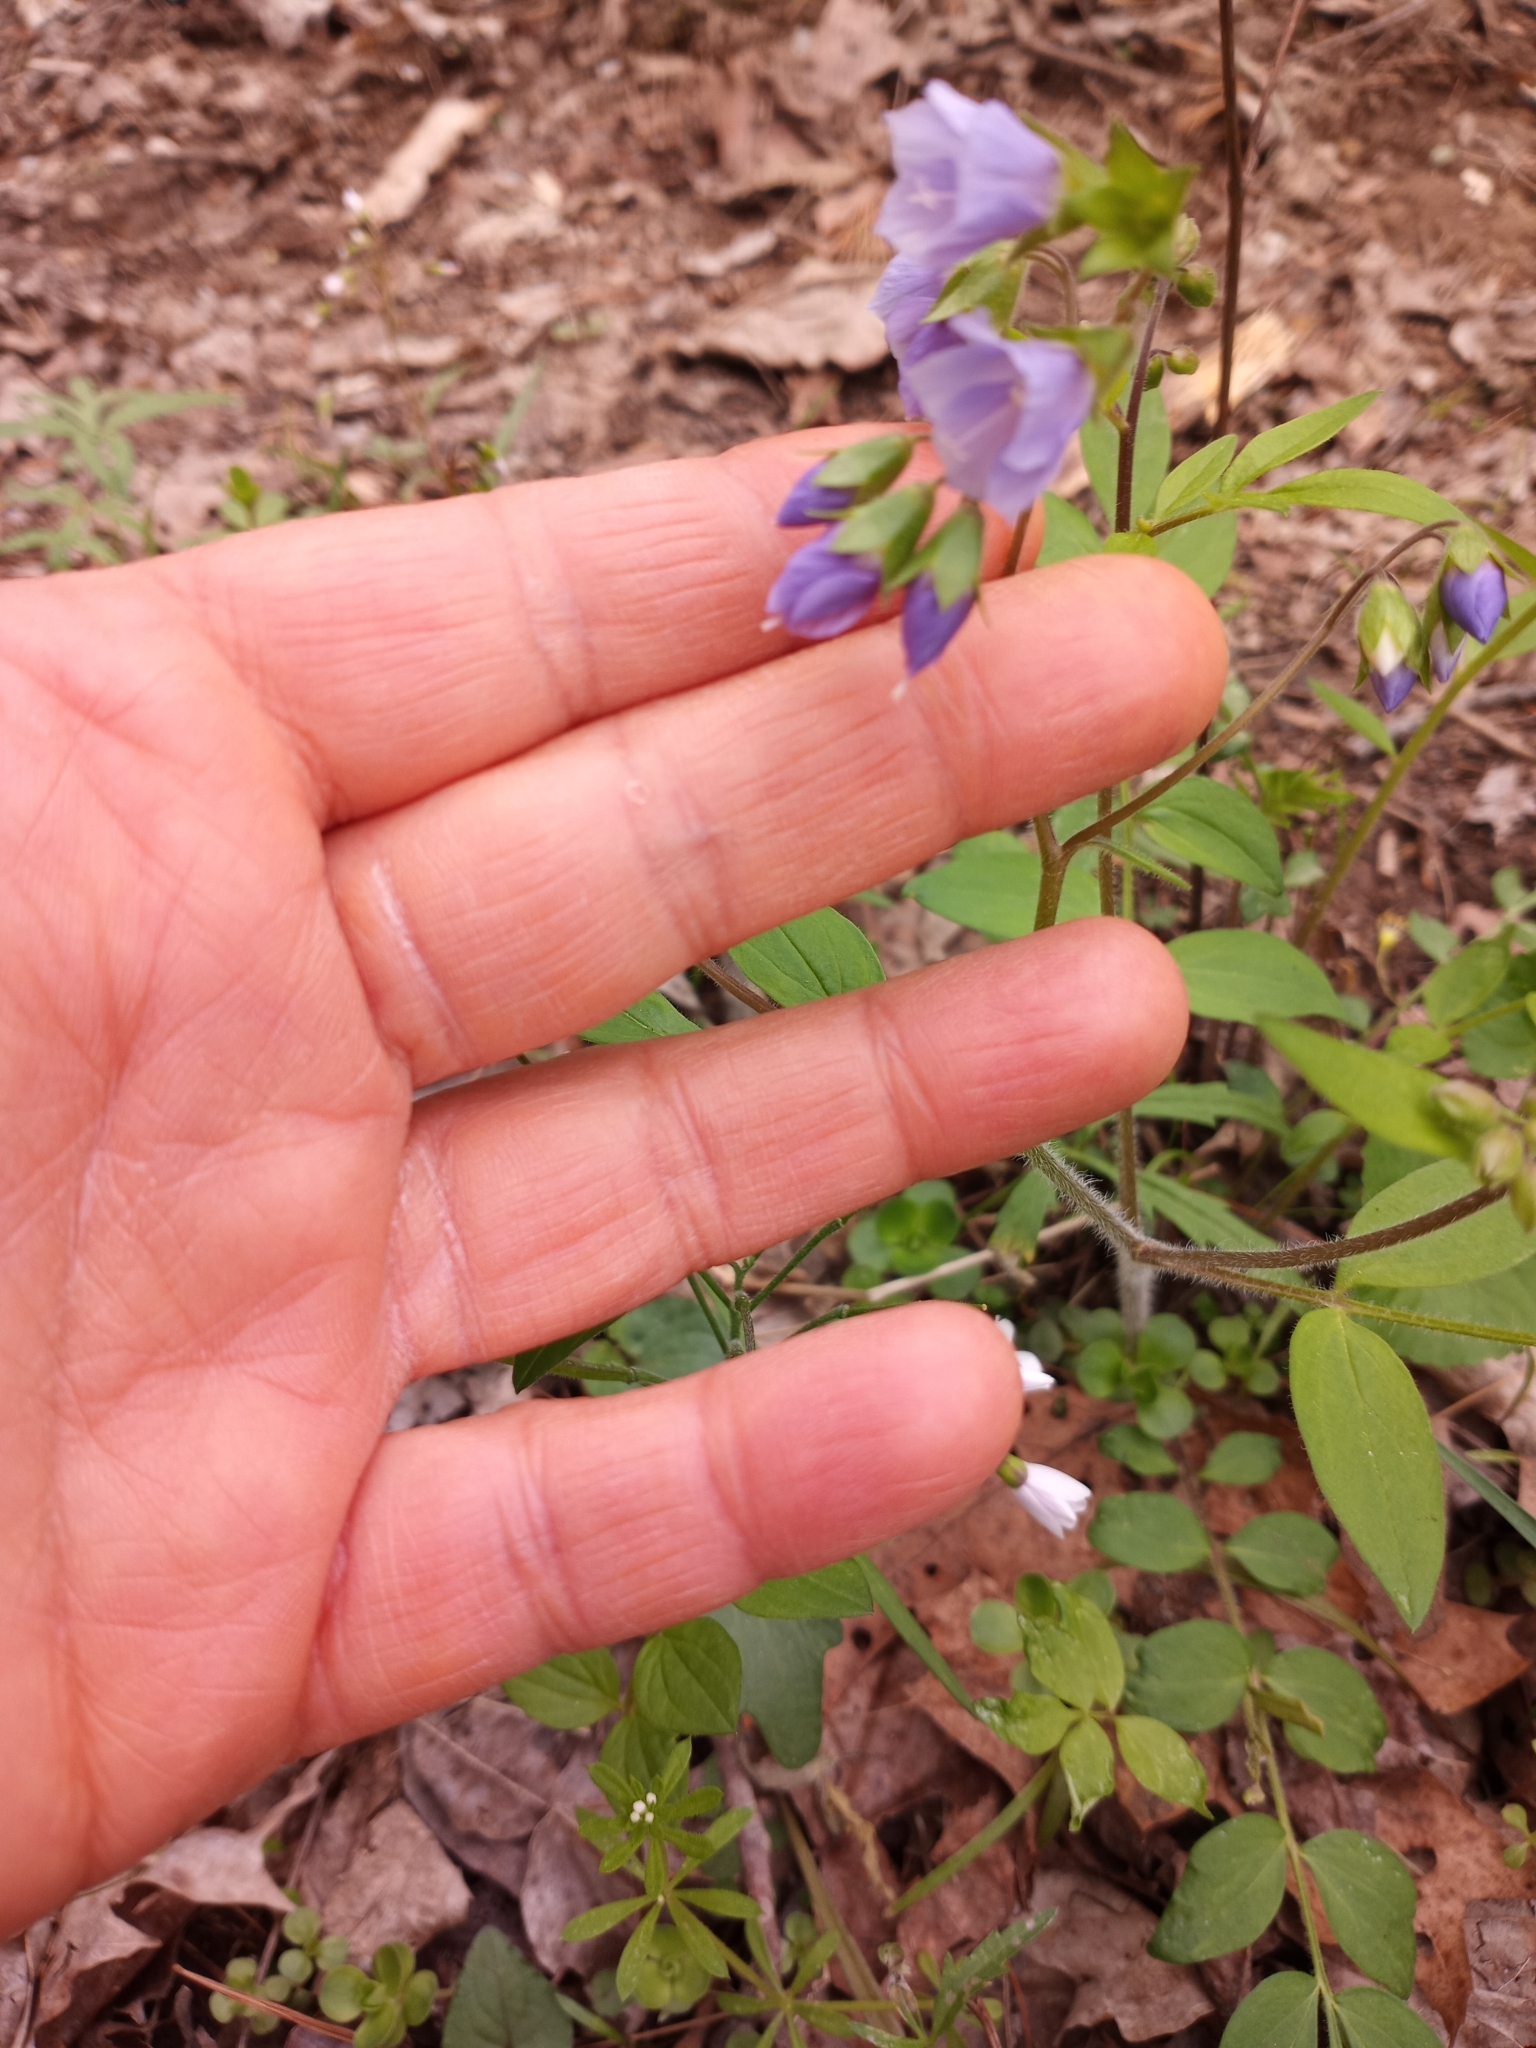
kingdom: Plantae
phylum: Tracheophyta
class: Magnoliopsida
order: Ericales
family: Polemoniaceae
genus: Polemonium
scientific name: Polemonium reptans
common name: Creeping jacob's-ladder
